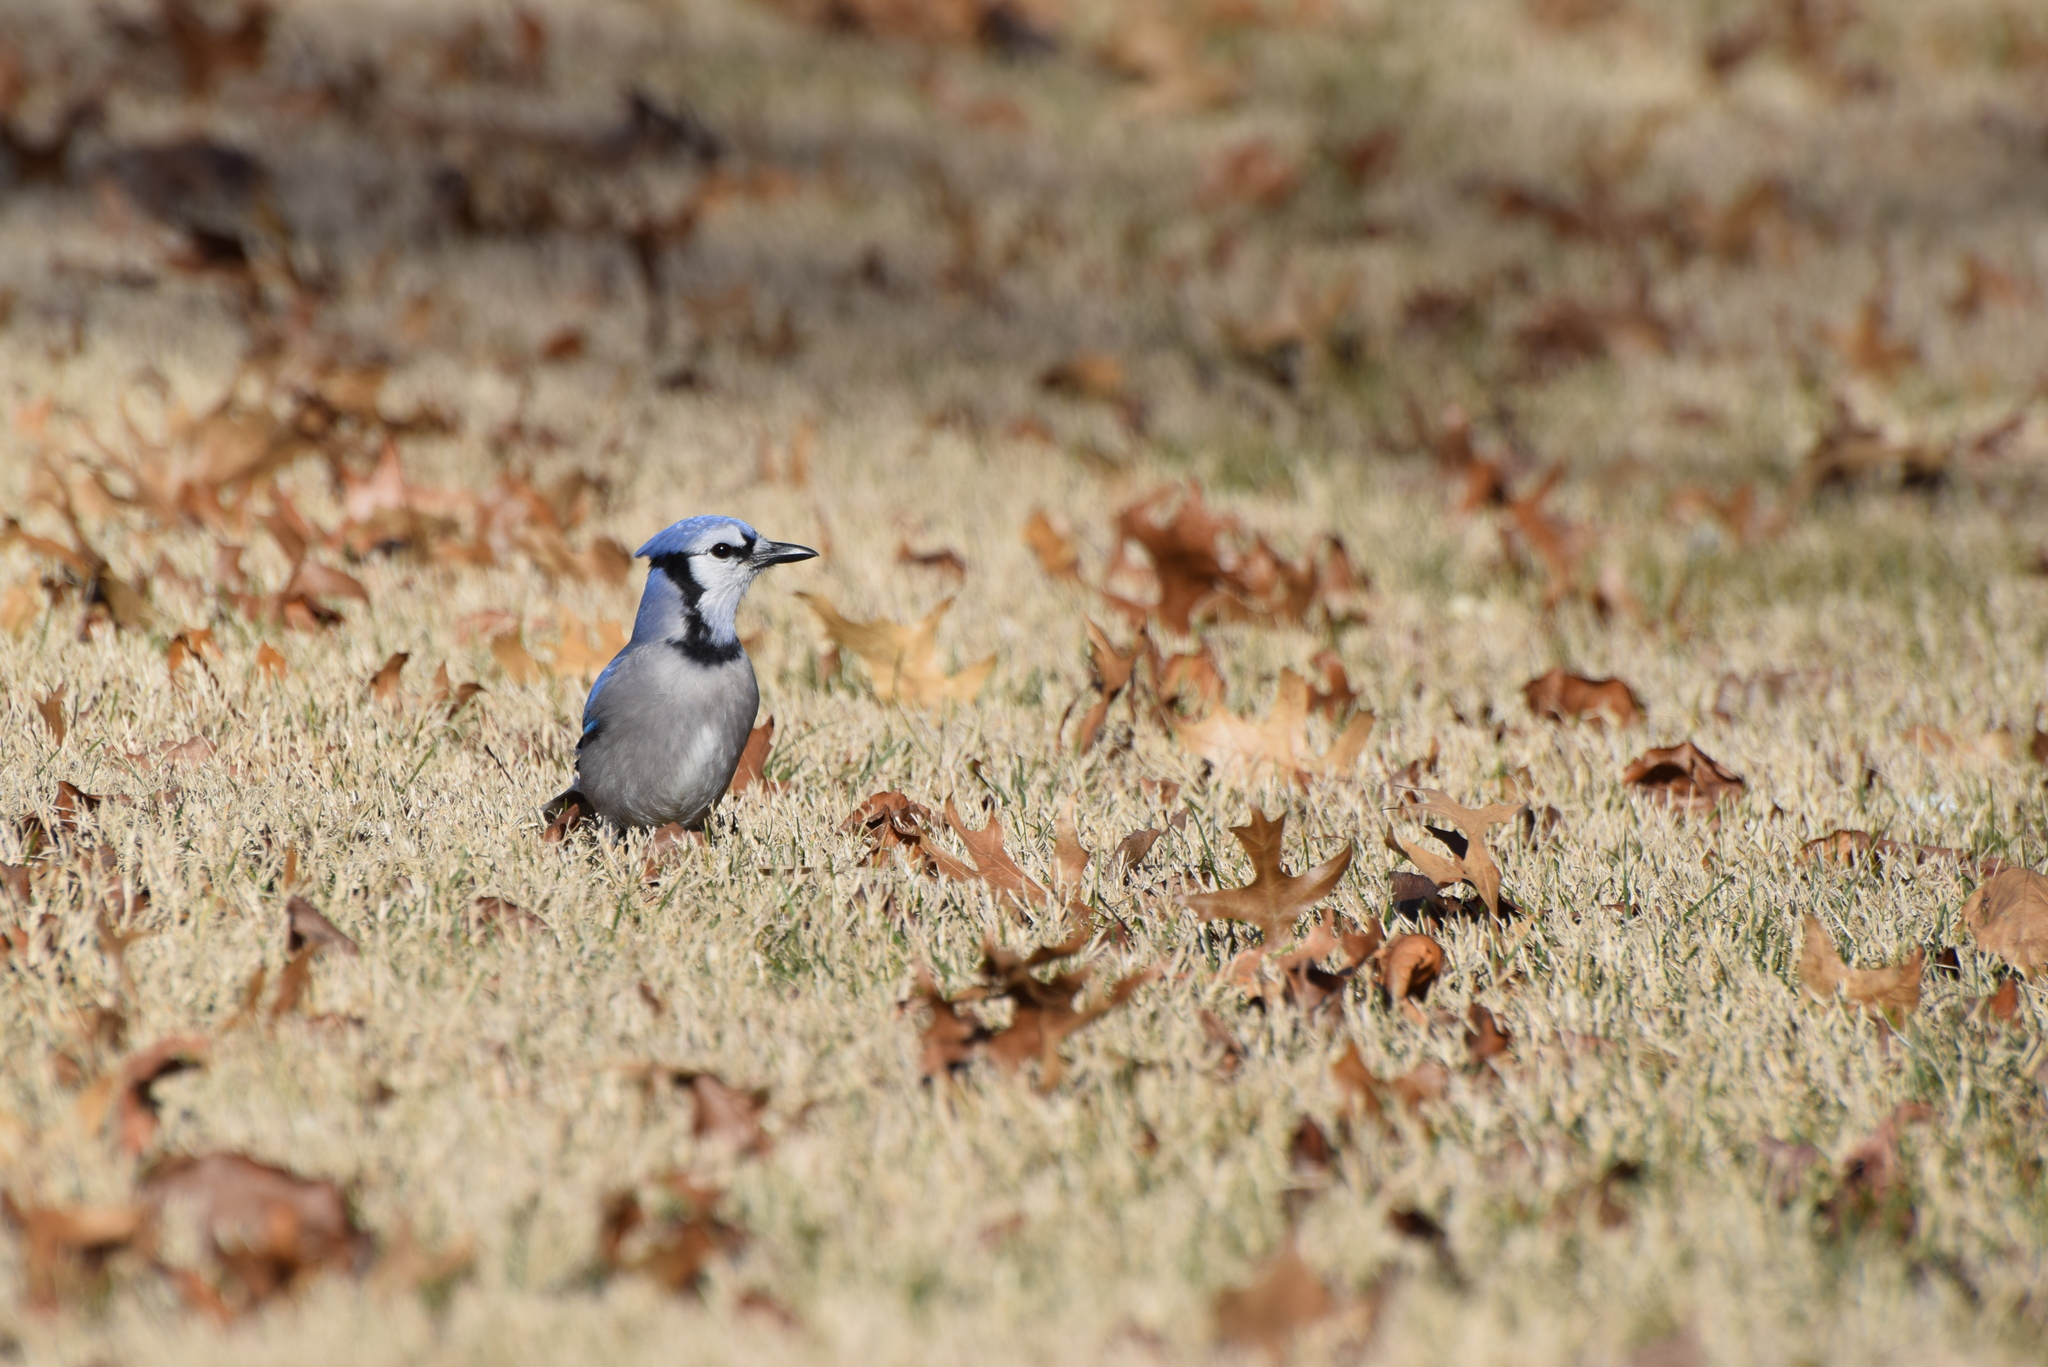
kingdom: Animalia
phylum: Chordata
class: Aves
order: Passeriformes
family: Corvidae
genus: Cyanocitta
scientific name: Cyanocitta cristata
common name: Blue jay
